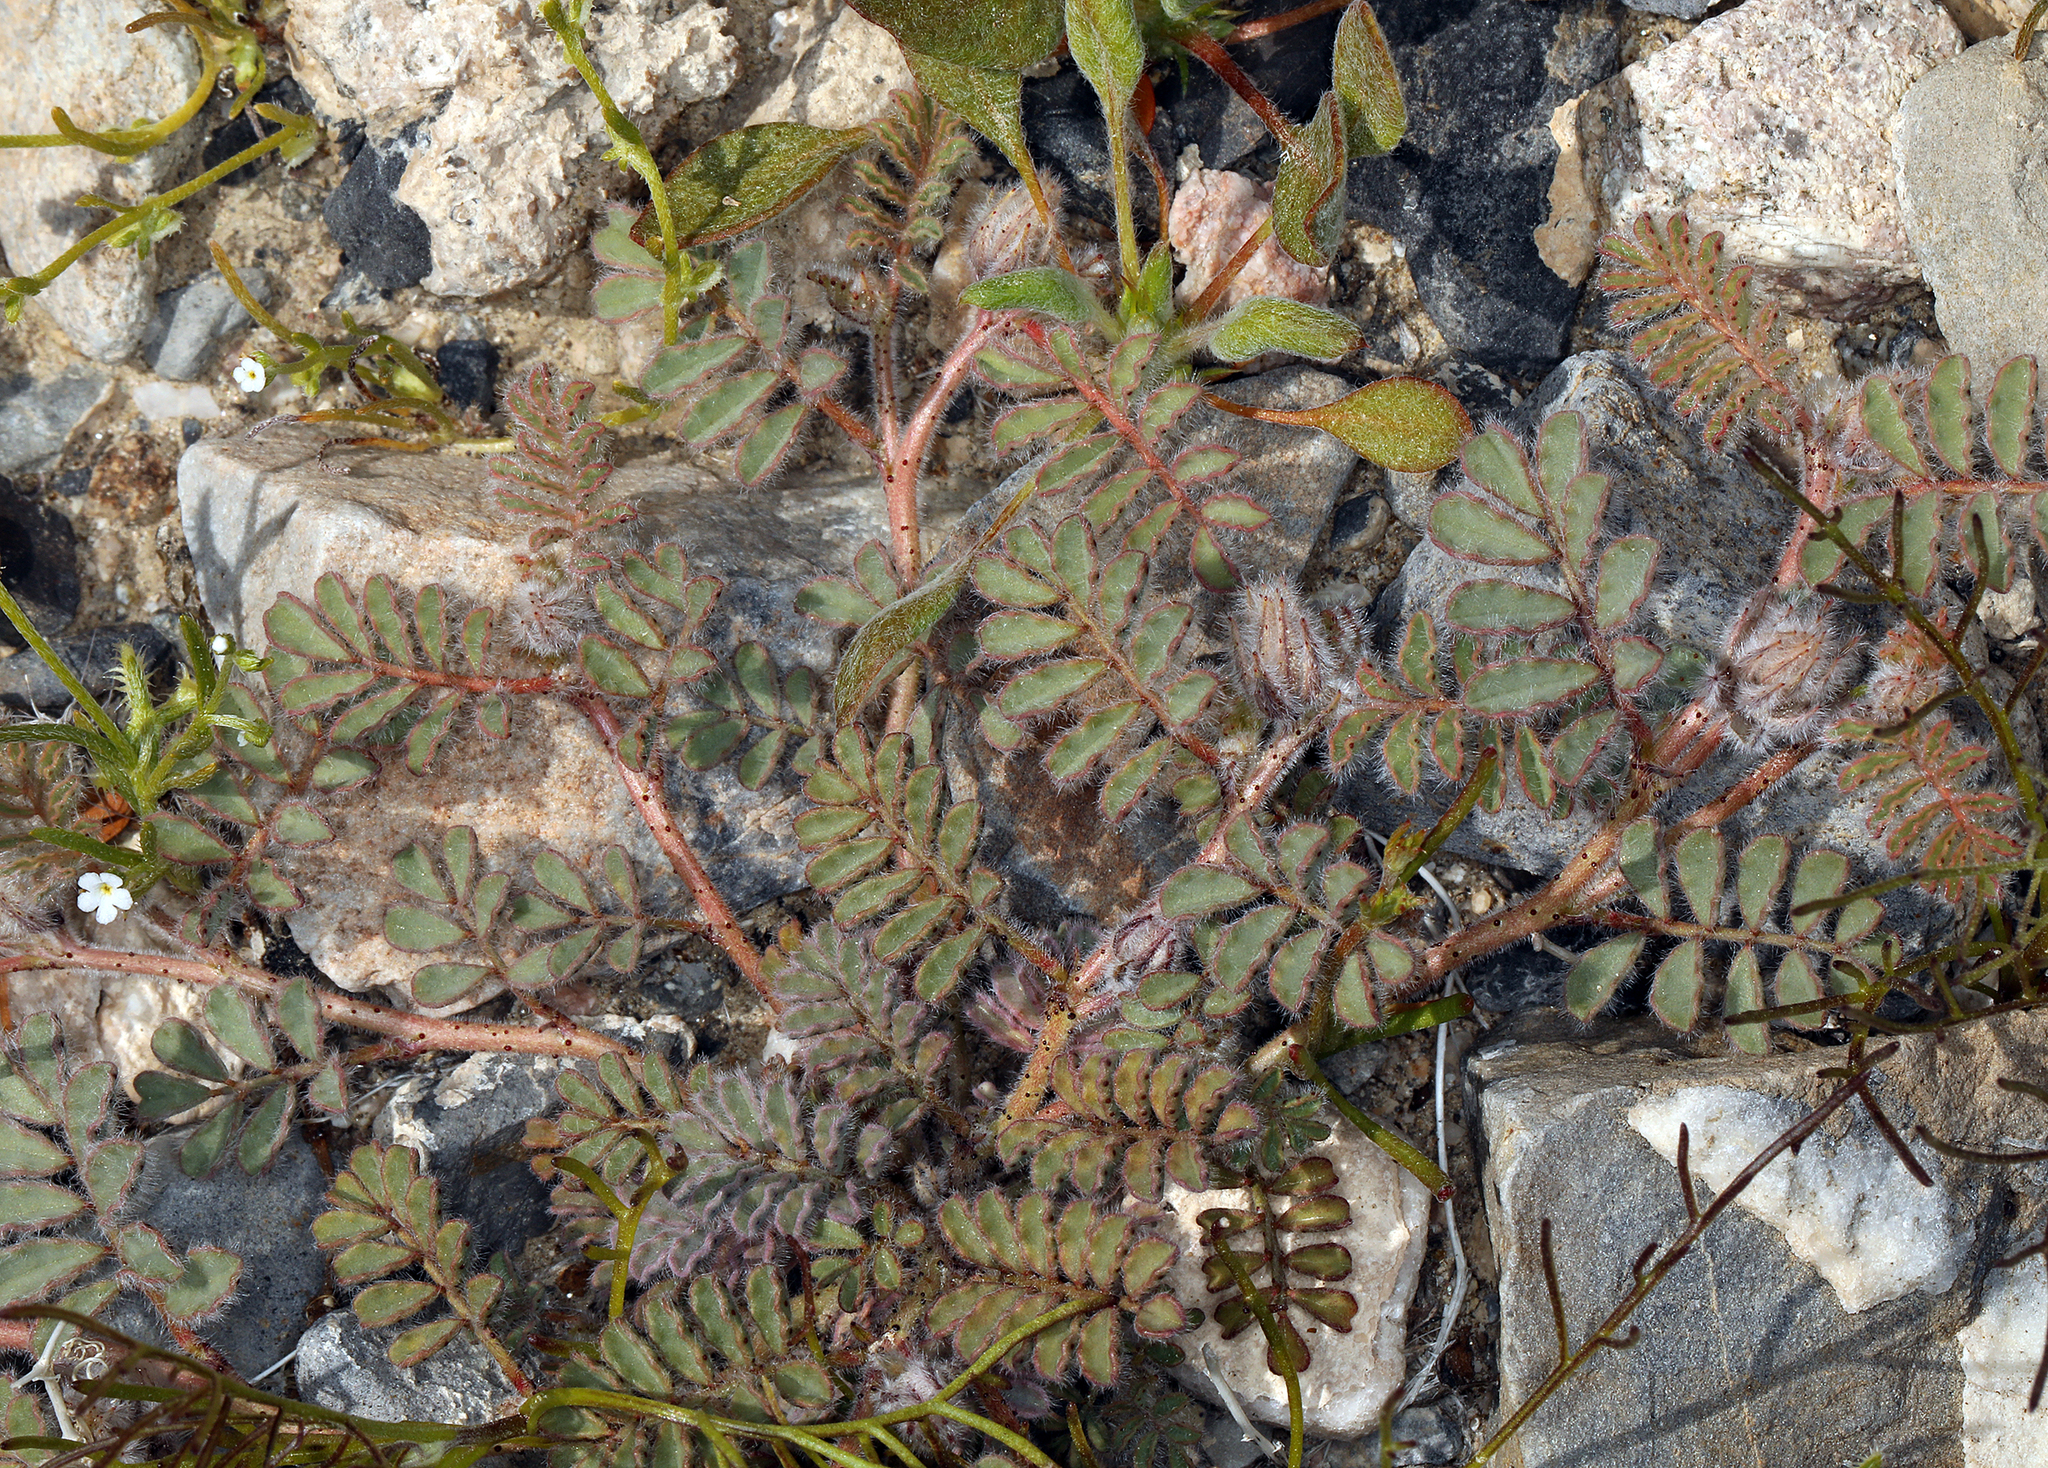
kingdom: Plantae
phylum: Tracheophyta
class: Magnoliopsida
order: Fabales
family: Fabaceae
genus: Dalea
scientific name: Dalea mollissima
